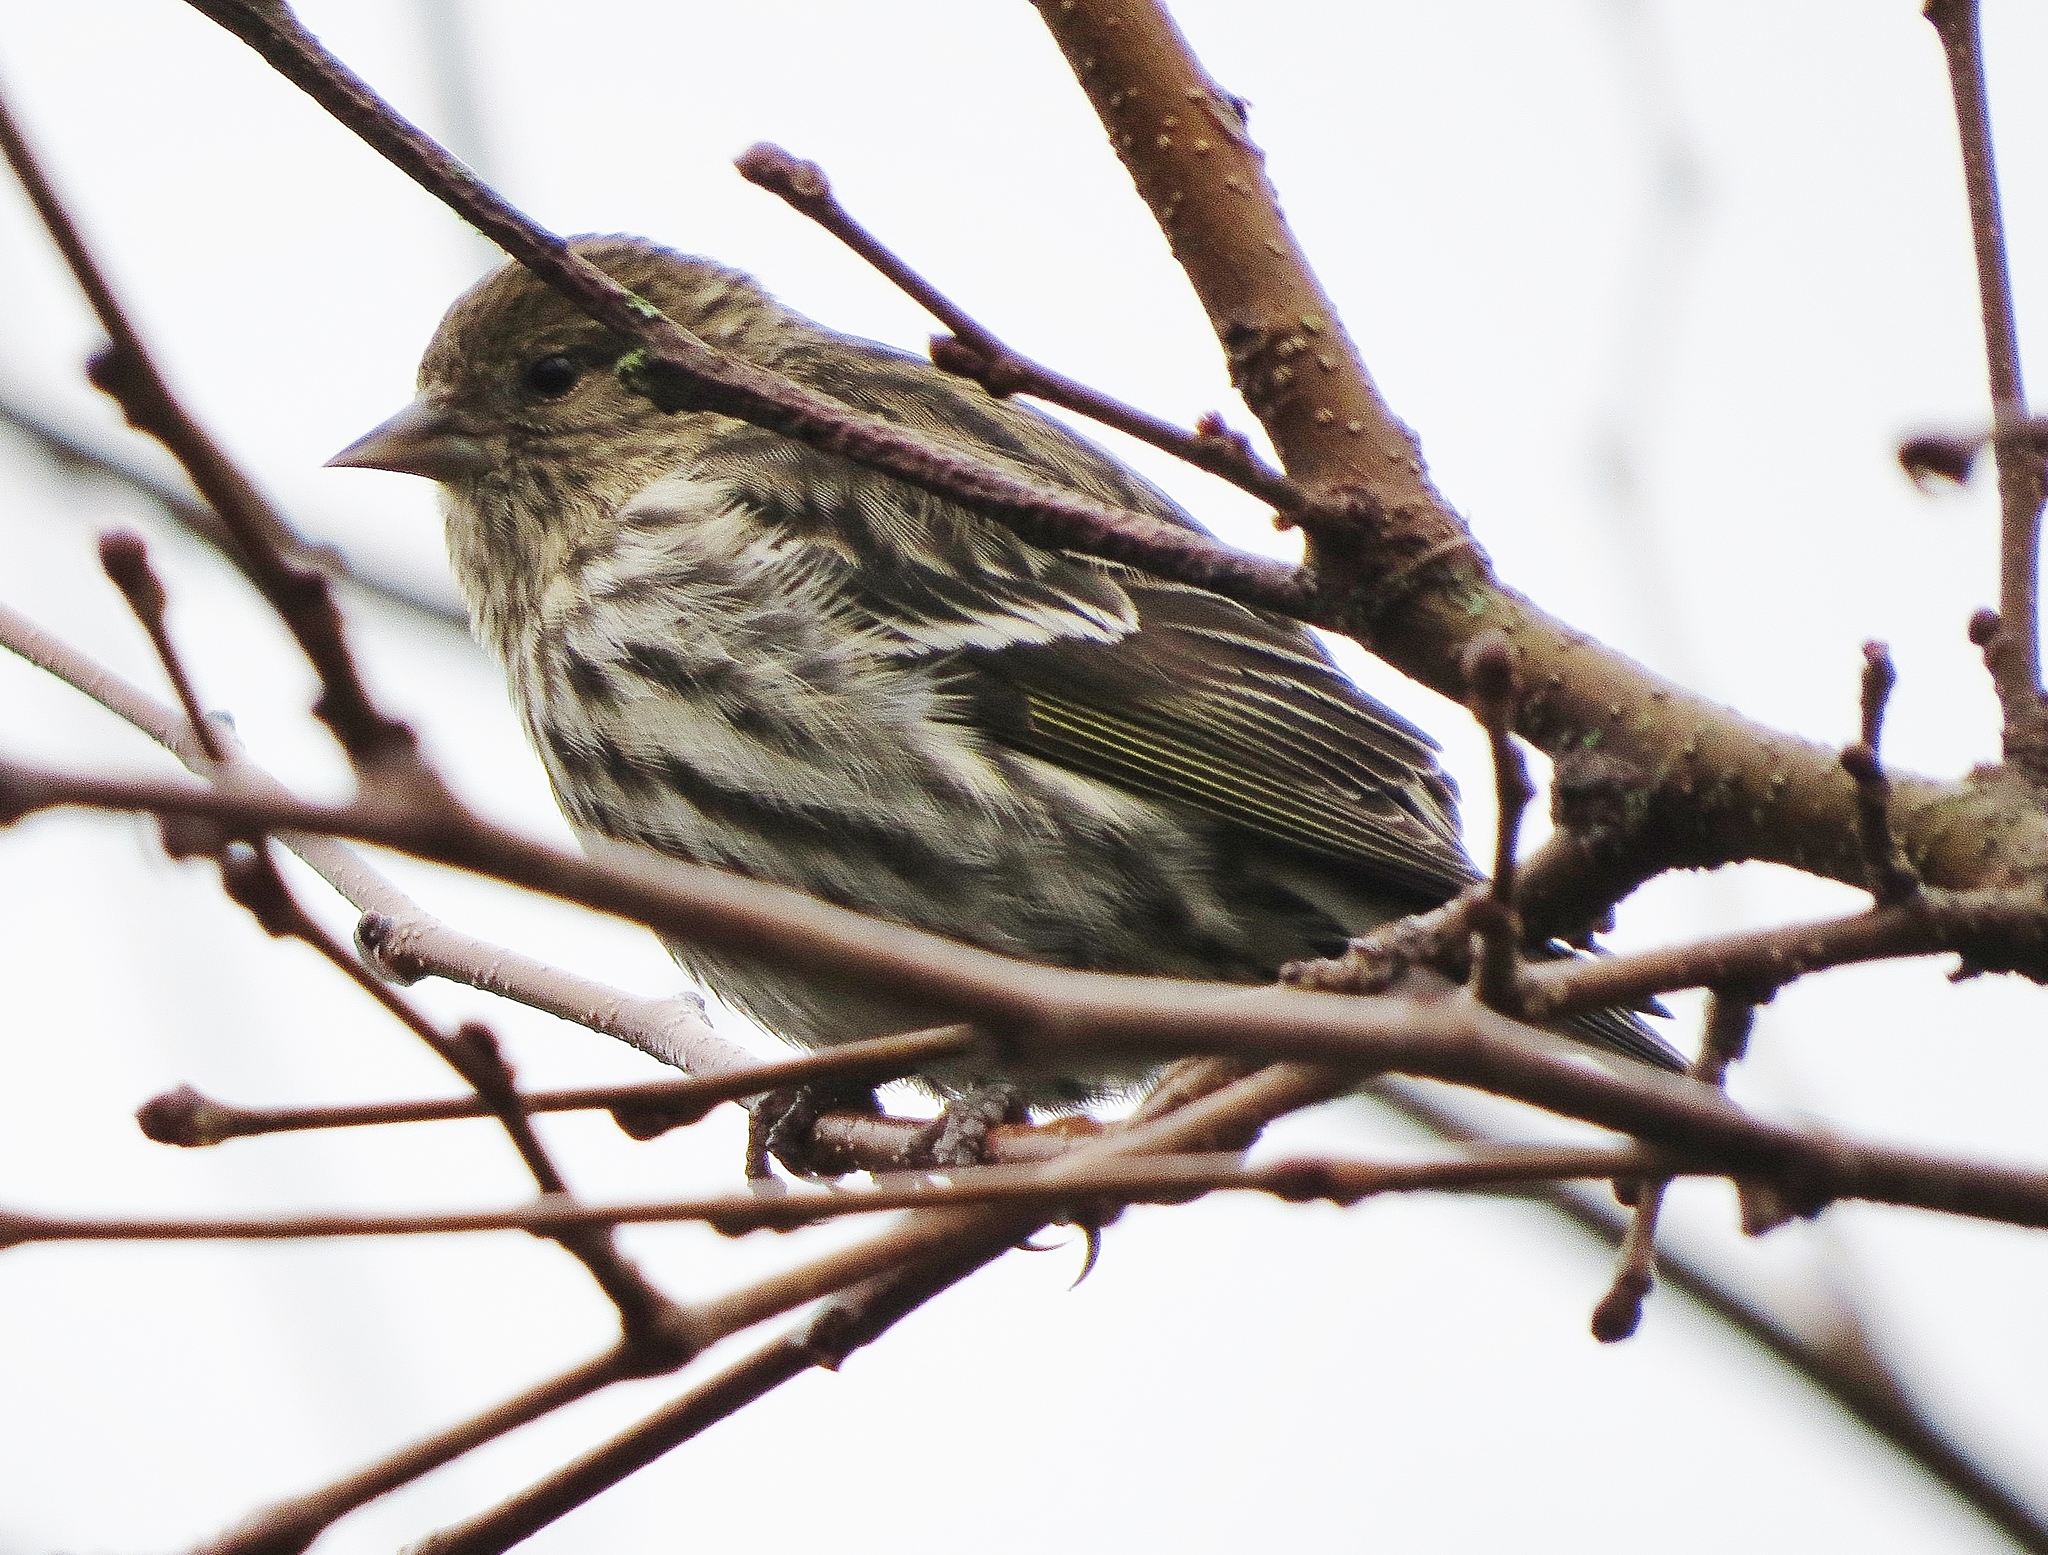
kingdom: Animalia
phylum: Chordata
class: Aves
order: Passeriformes
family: Fringillidae
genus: Spinus
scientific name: Spinus pinus
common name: Pine siskin
